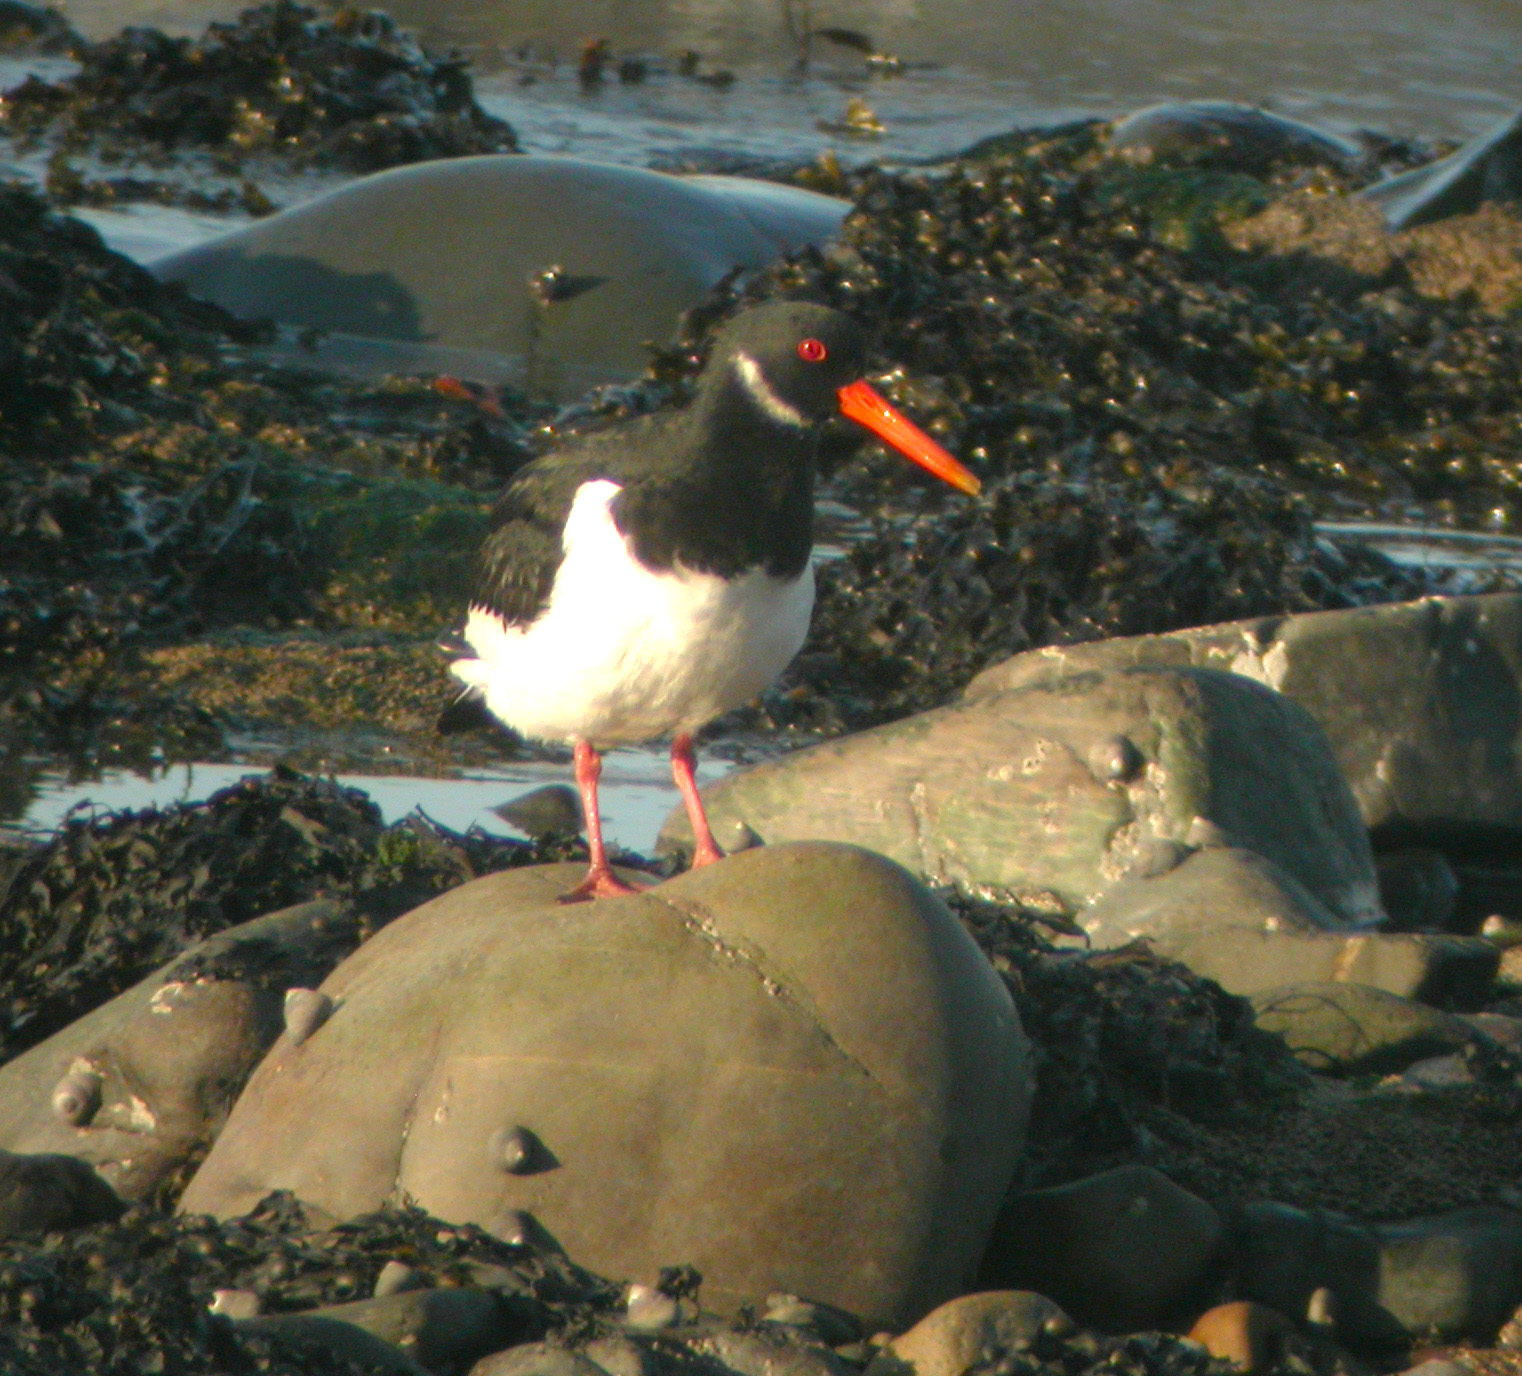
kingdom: Animalia
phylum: Chordata
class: Aves
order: Charadriiformes
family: Haematopodidae
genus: Haematopus
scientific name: Haematopus ostralegus
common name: Eurasian oystercatcher
